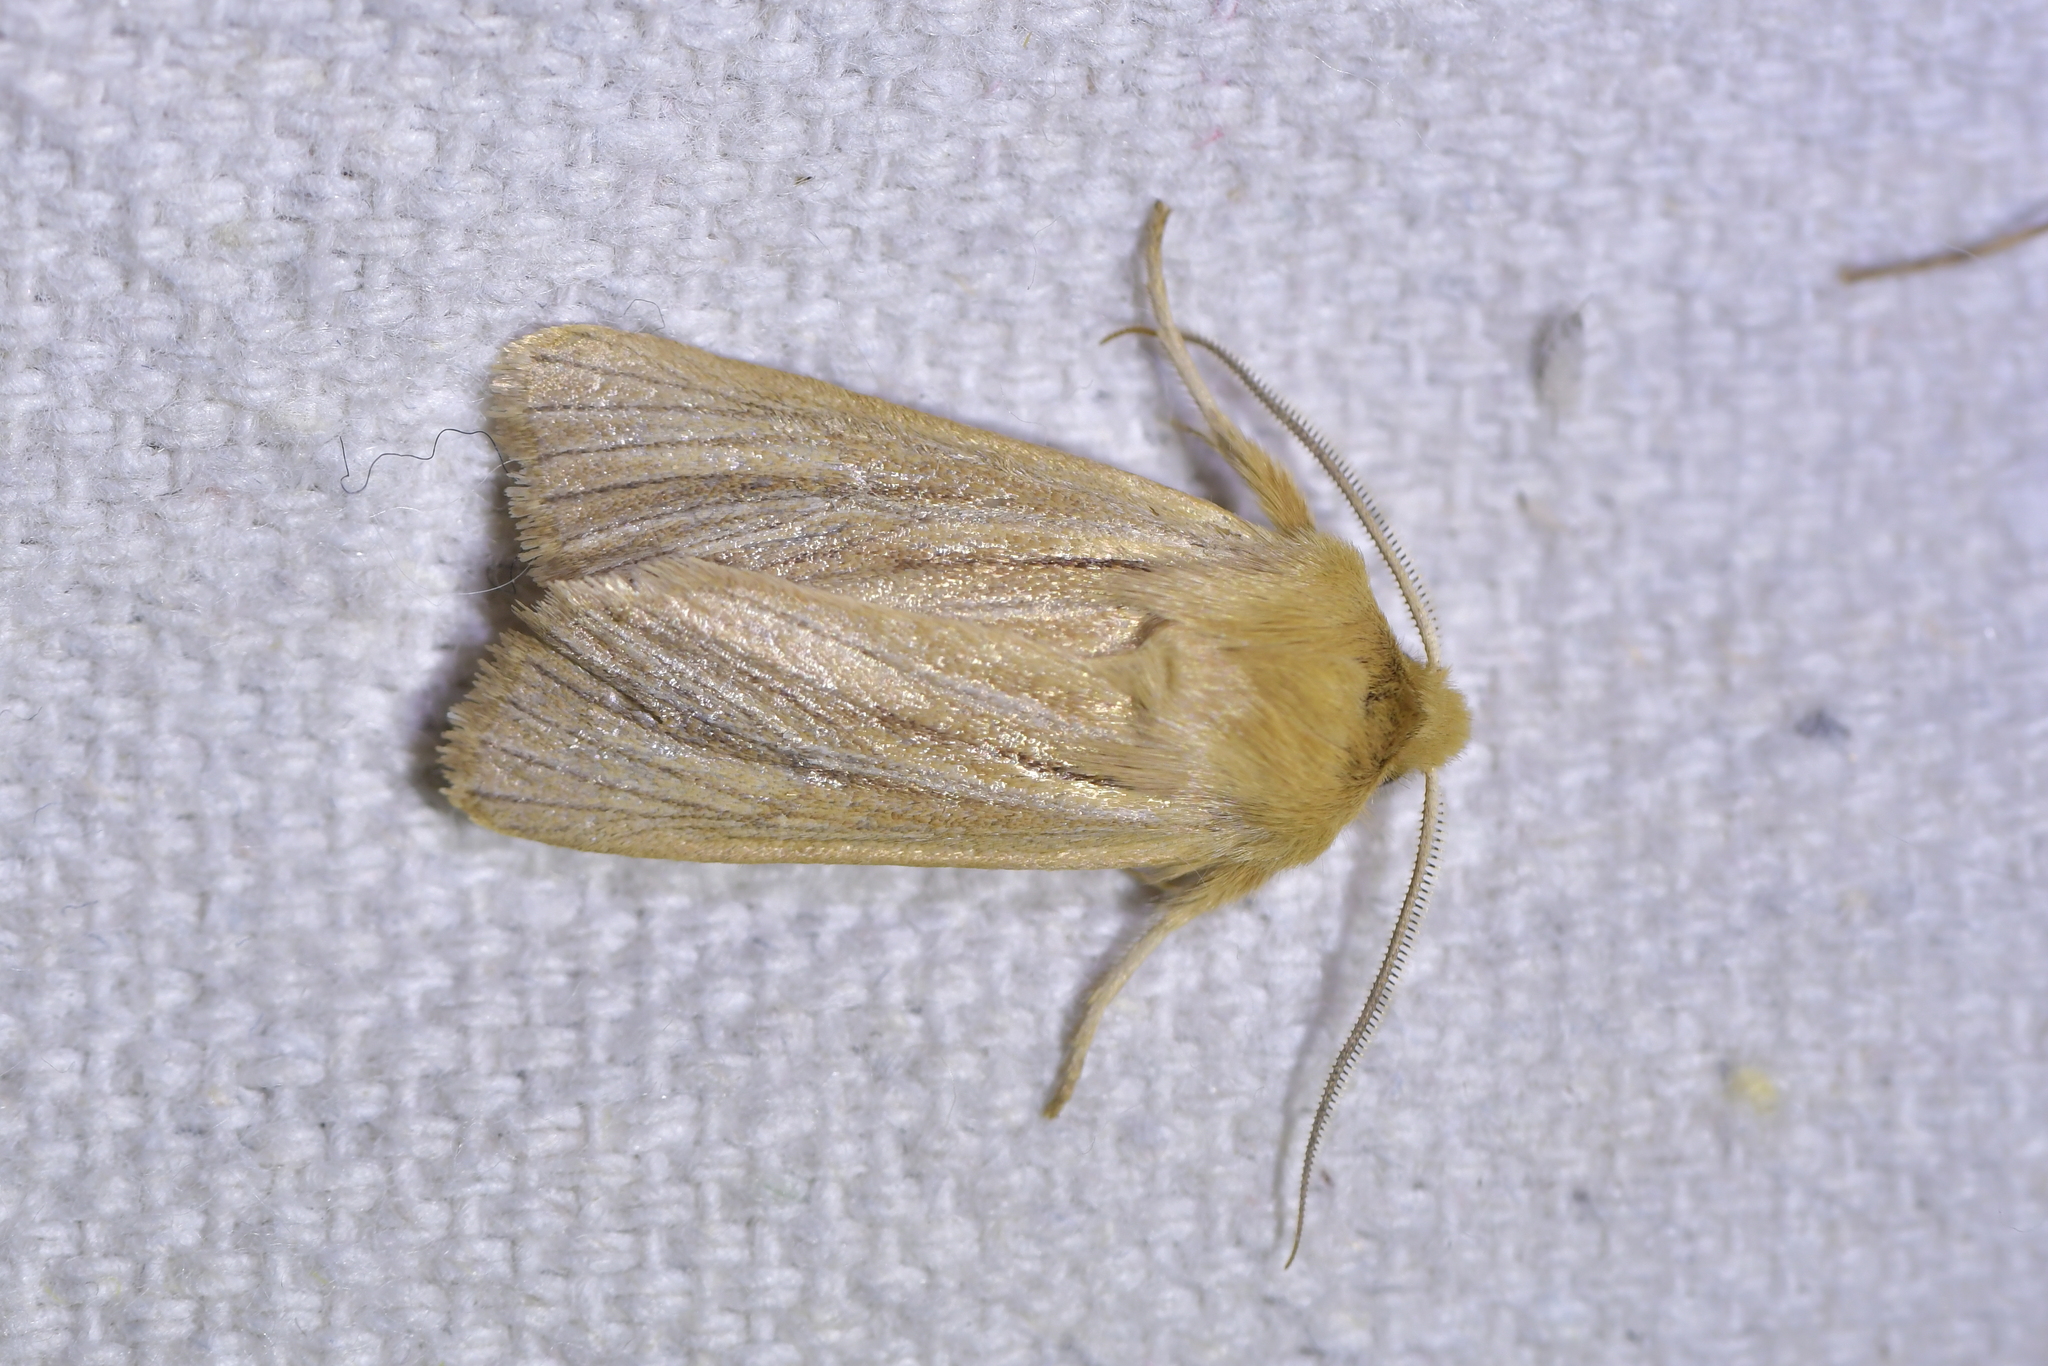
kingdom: Animalia
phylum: Arthropoda
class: Insecta
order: Lepidoptera
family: Noctuidae
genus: Ichneutica
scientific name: Ichneutica
